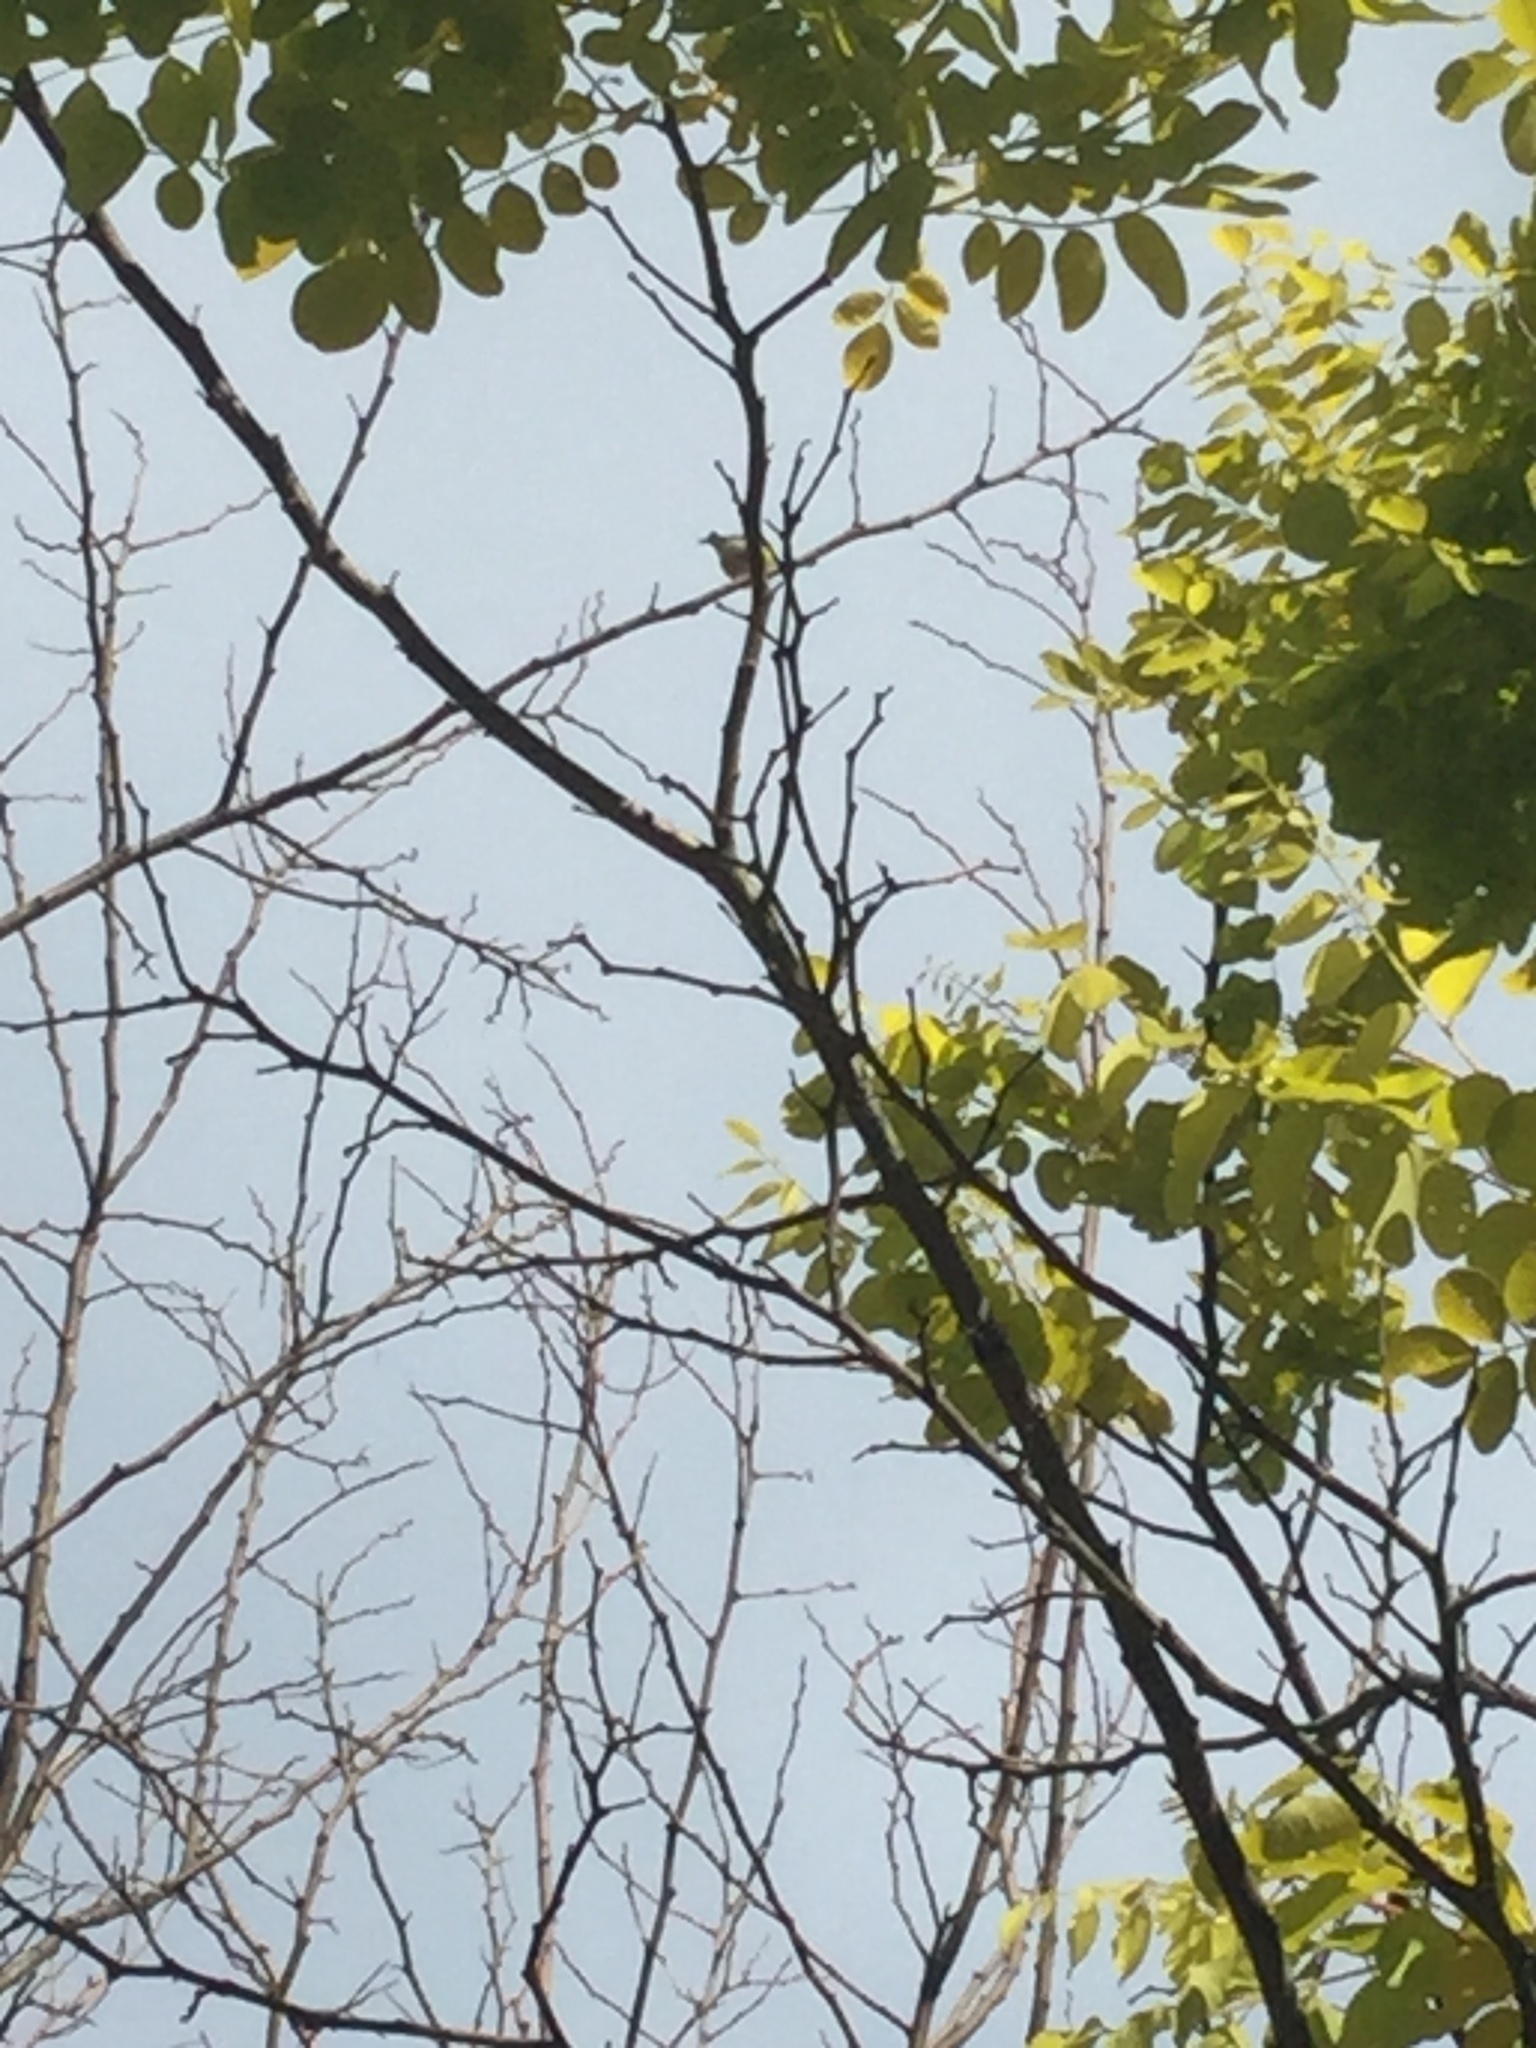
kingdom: Animalia
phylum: Chordata
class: Aves
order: Passeriformes
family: Fringillidae
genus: Spinus
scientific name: Spinus tristis
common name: American goldfinch
